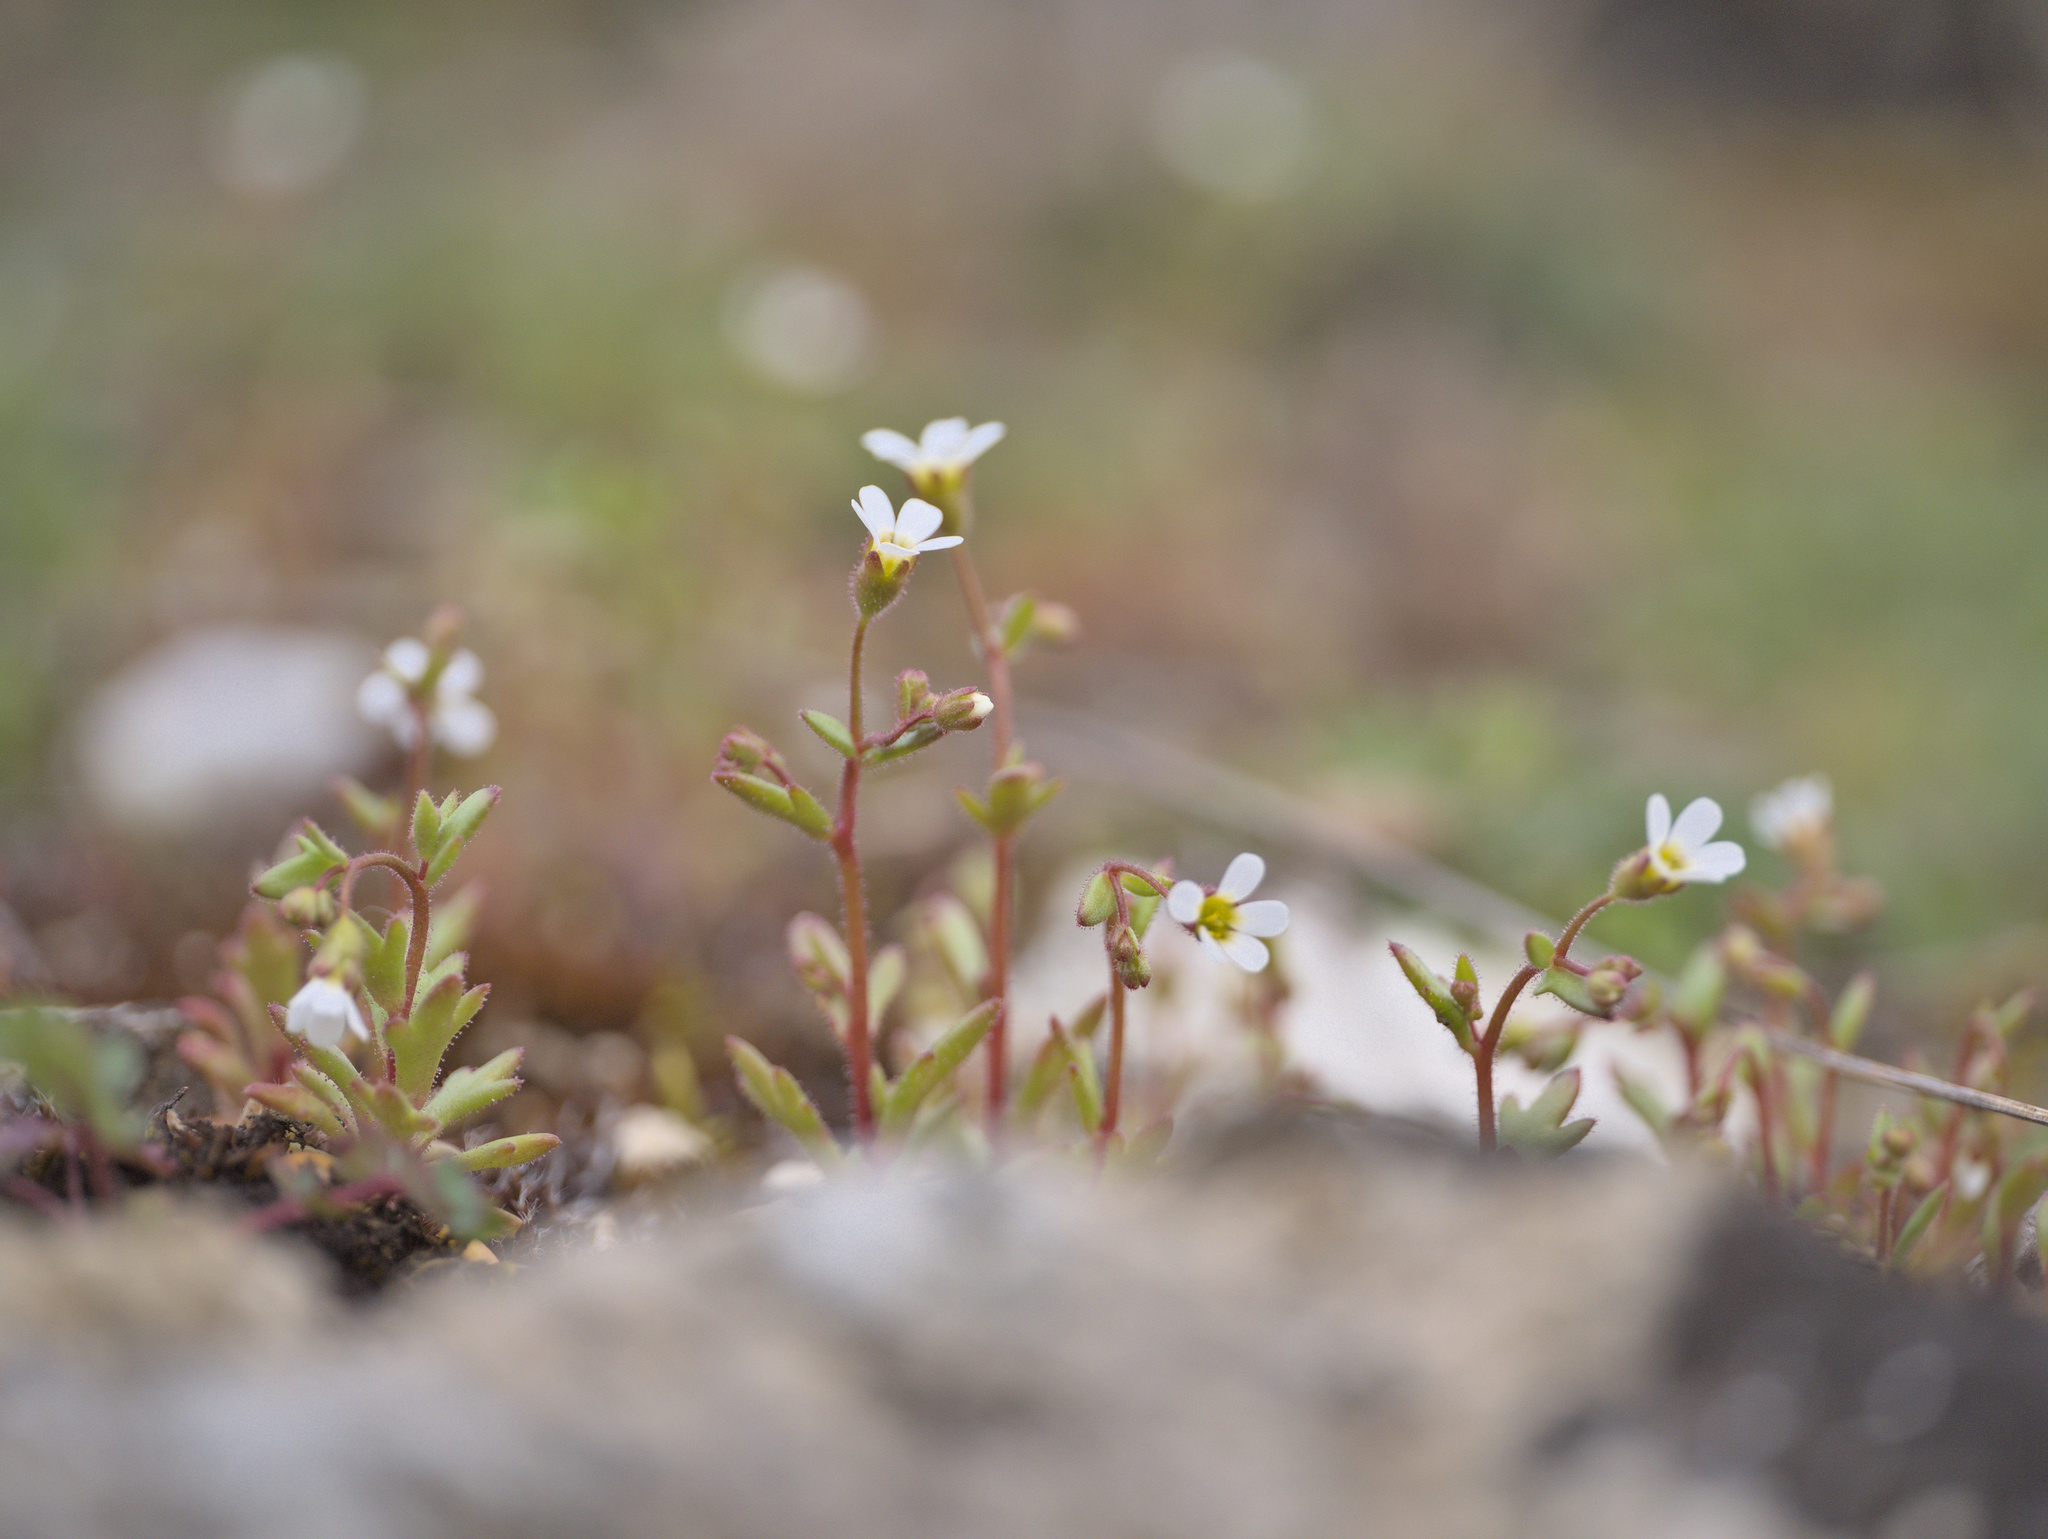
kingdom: Plantae
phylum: Tracheophyta
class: Magnoliopsida
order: Saxifragales
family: Saxifragaceae
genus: Saxifraga
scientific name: Saxifraga tridactylites
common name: Rue-leaved saxifrage
